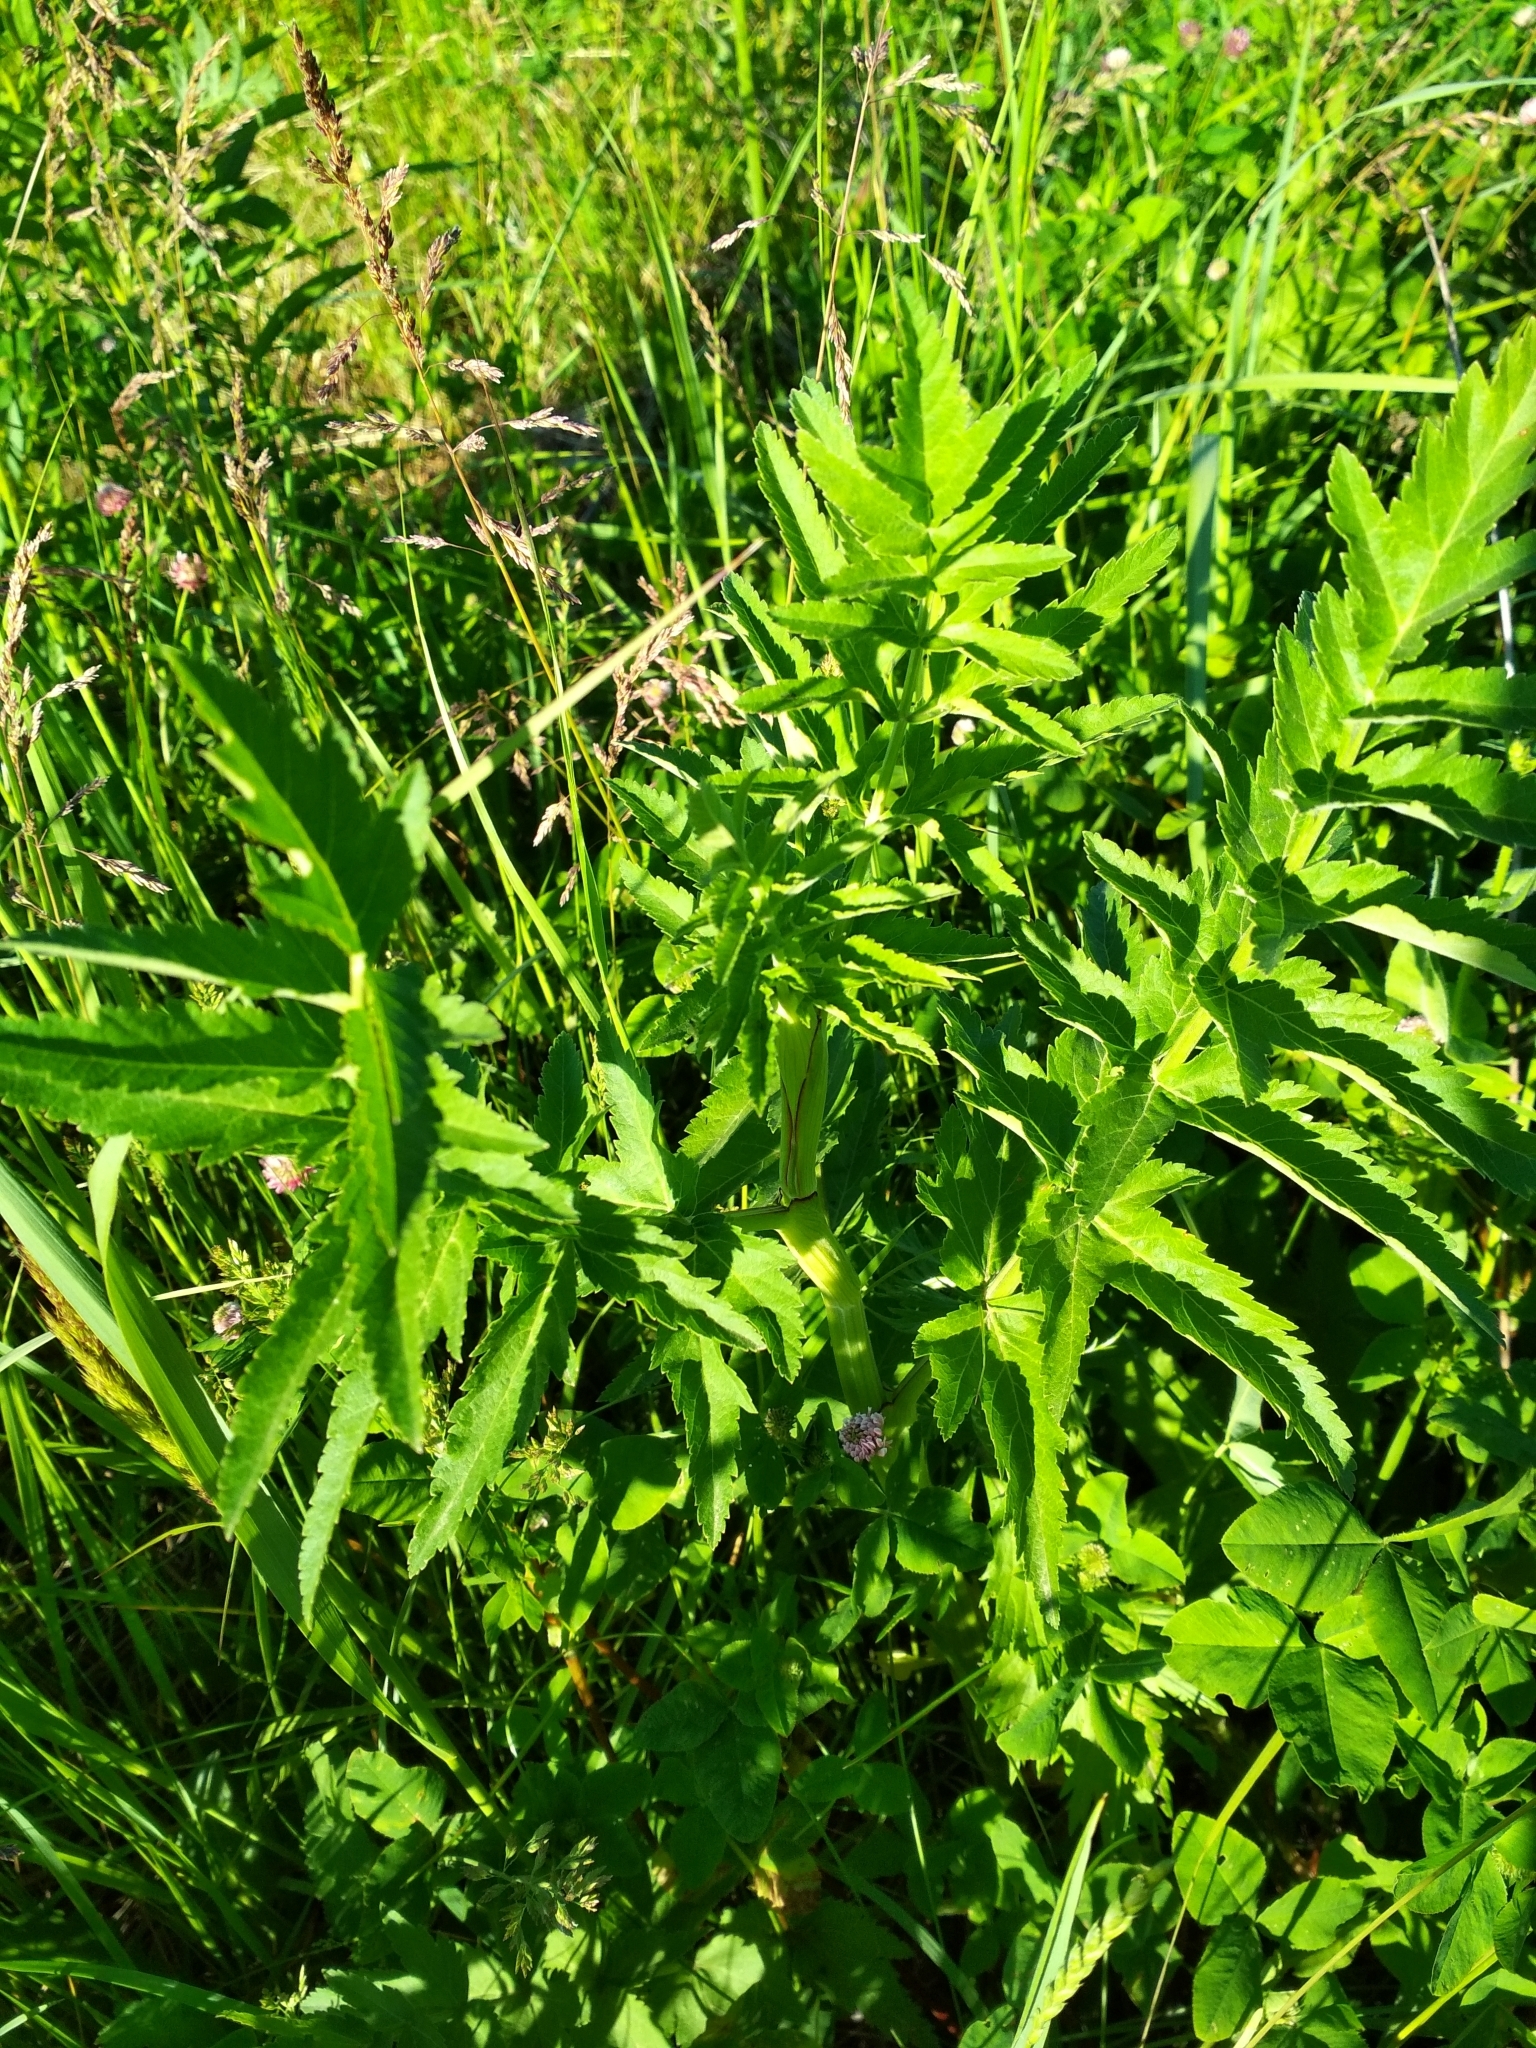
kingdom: Plantae
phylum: Tracheophyta
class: Magnoliopsida
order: Apiales
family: Apiaceae
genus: Pastinaca
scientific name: Pastinaca sativa
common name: Wild parsnip
